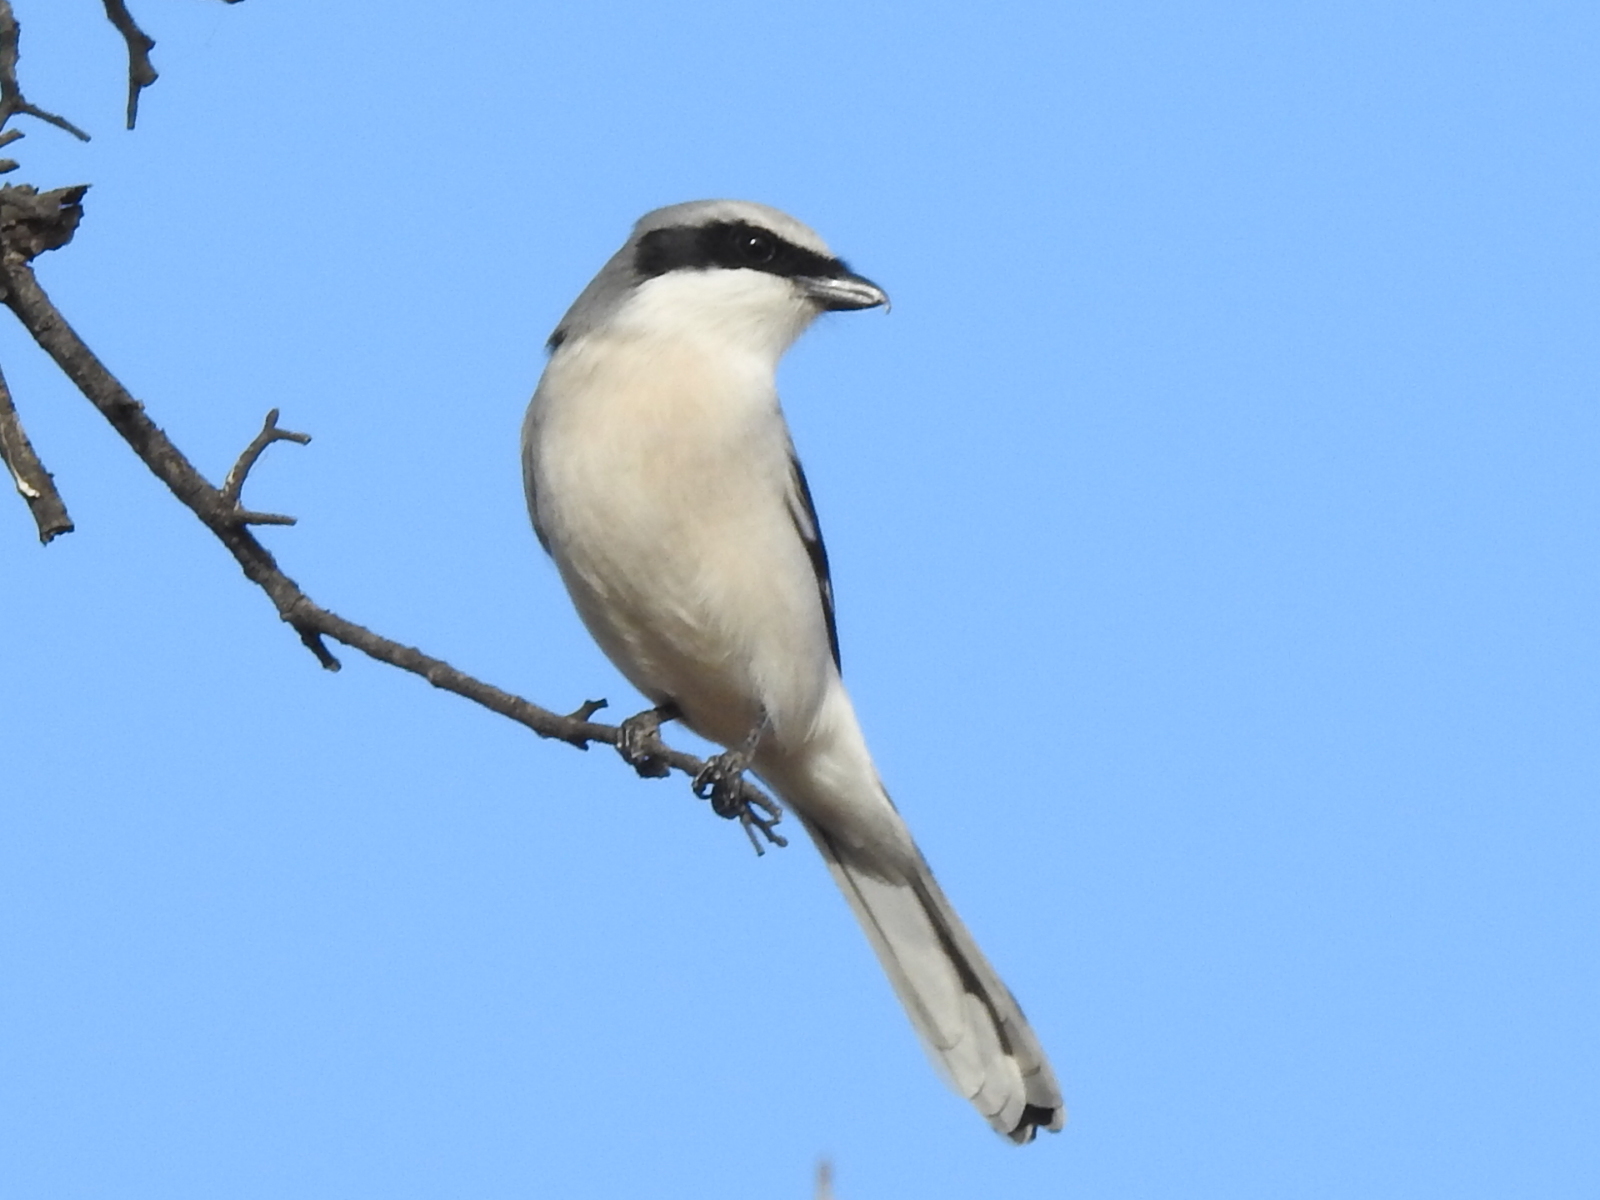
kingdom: Animalia
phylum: Chordata
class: Aves
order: Passeriformes
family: Laniidae
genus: Lanius
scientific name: Lanius ludovicianus
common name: Loggerhead shrike
